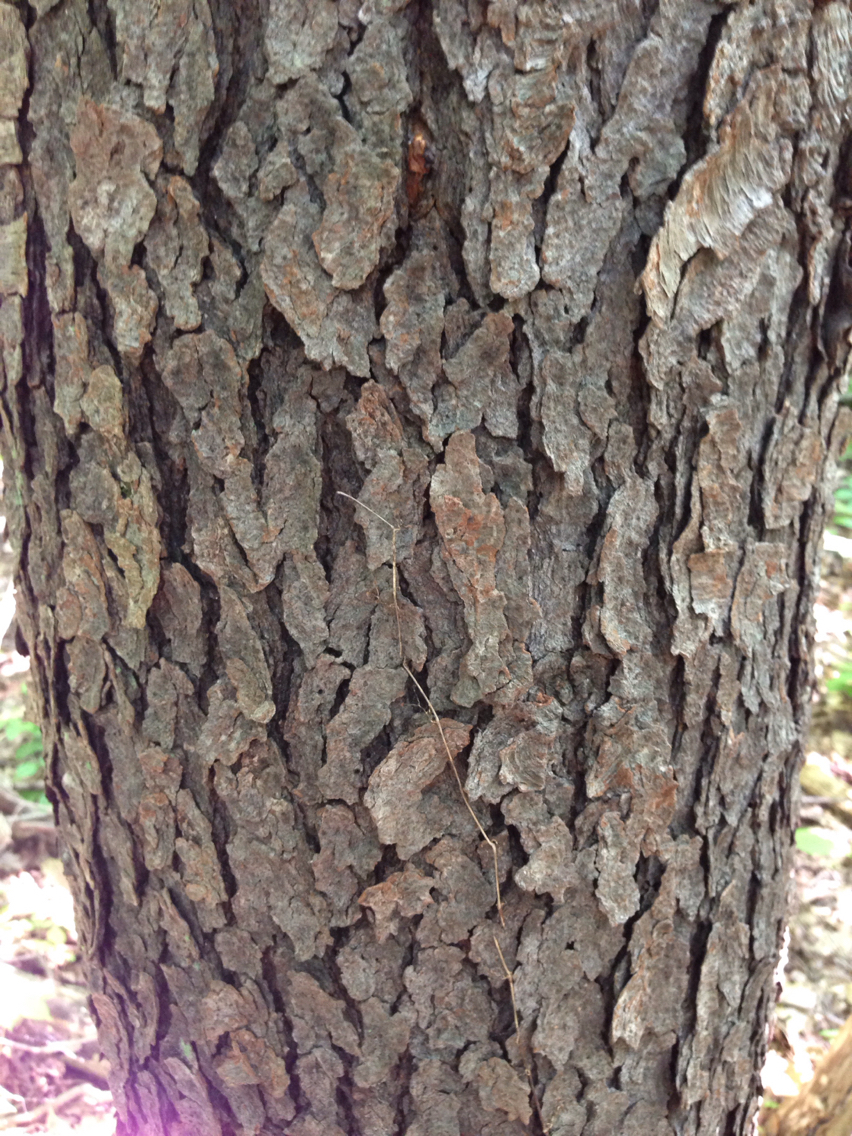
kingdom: Plantae
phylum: Tracheophyta
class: Magnoliopsida
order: Rosales
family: Rosaceae
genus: Prunus
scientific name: Prunus serotina
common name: Black cherry
